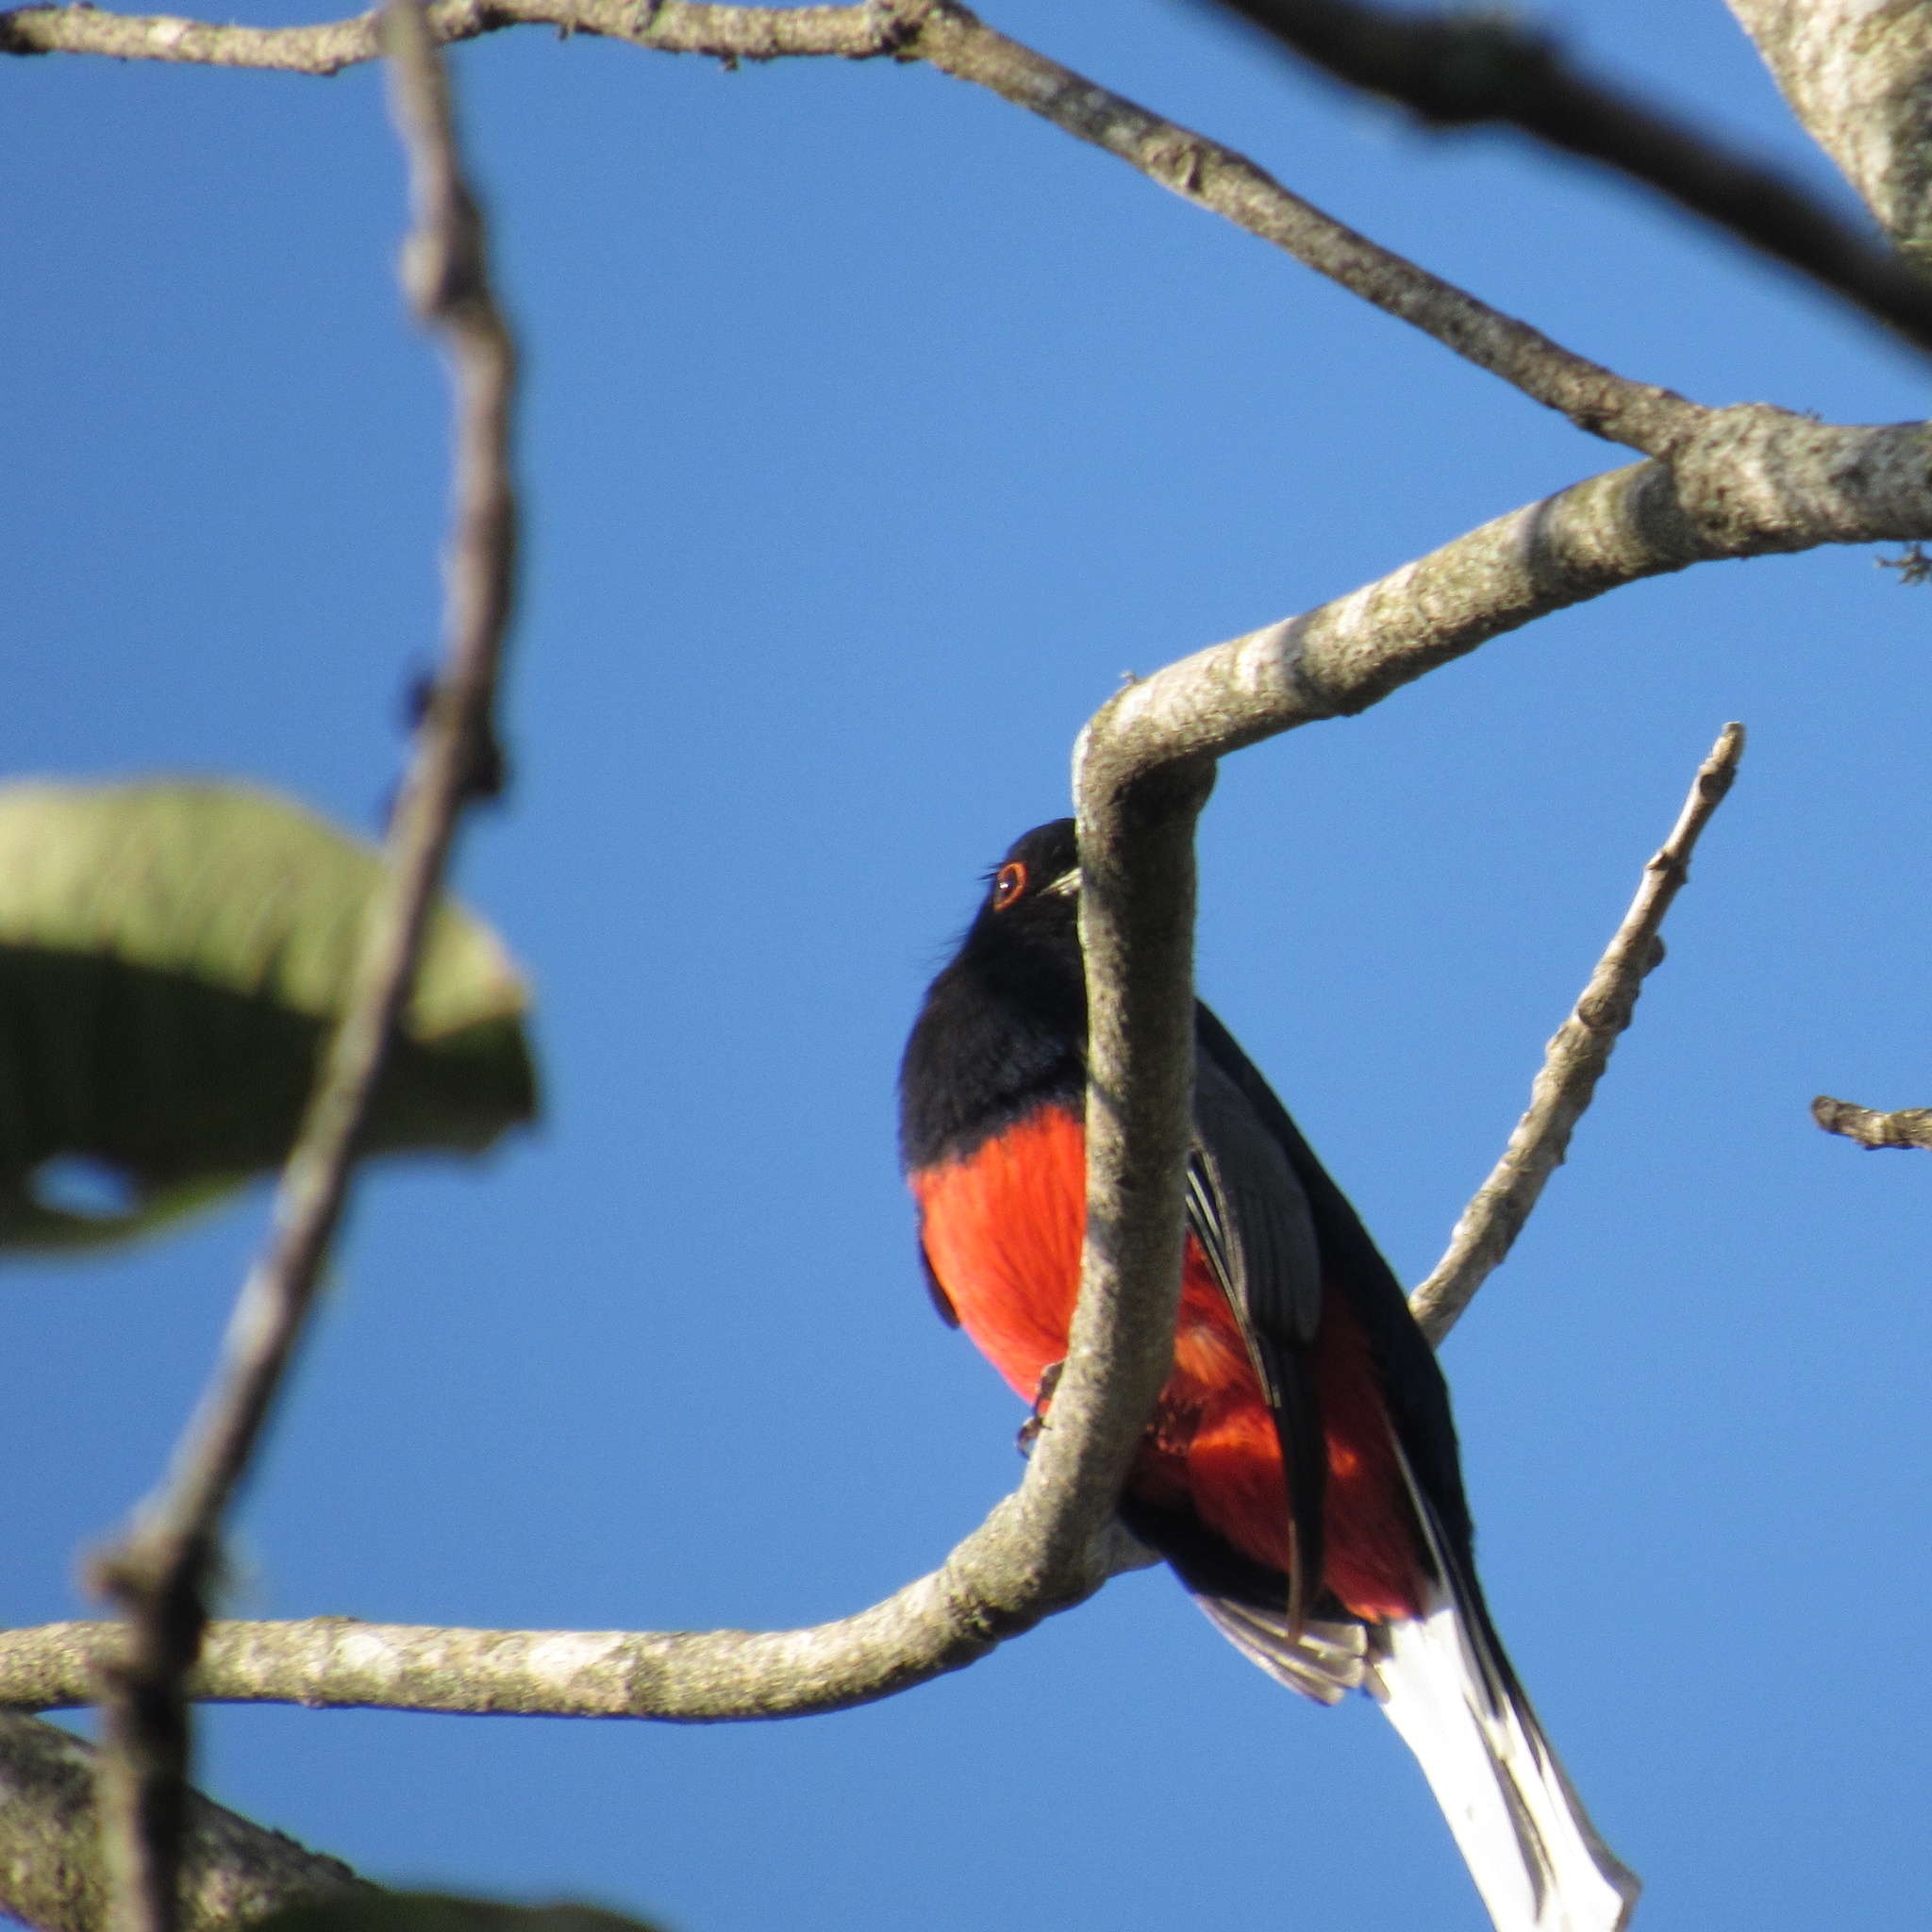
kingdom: Animalia
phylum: Chordata
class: Aves
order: Trogoniformes
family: Trogonidae
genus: Trogon
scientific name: Trogon surrucura
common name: Surucua trogon
